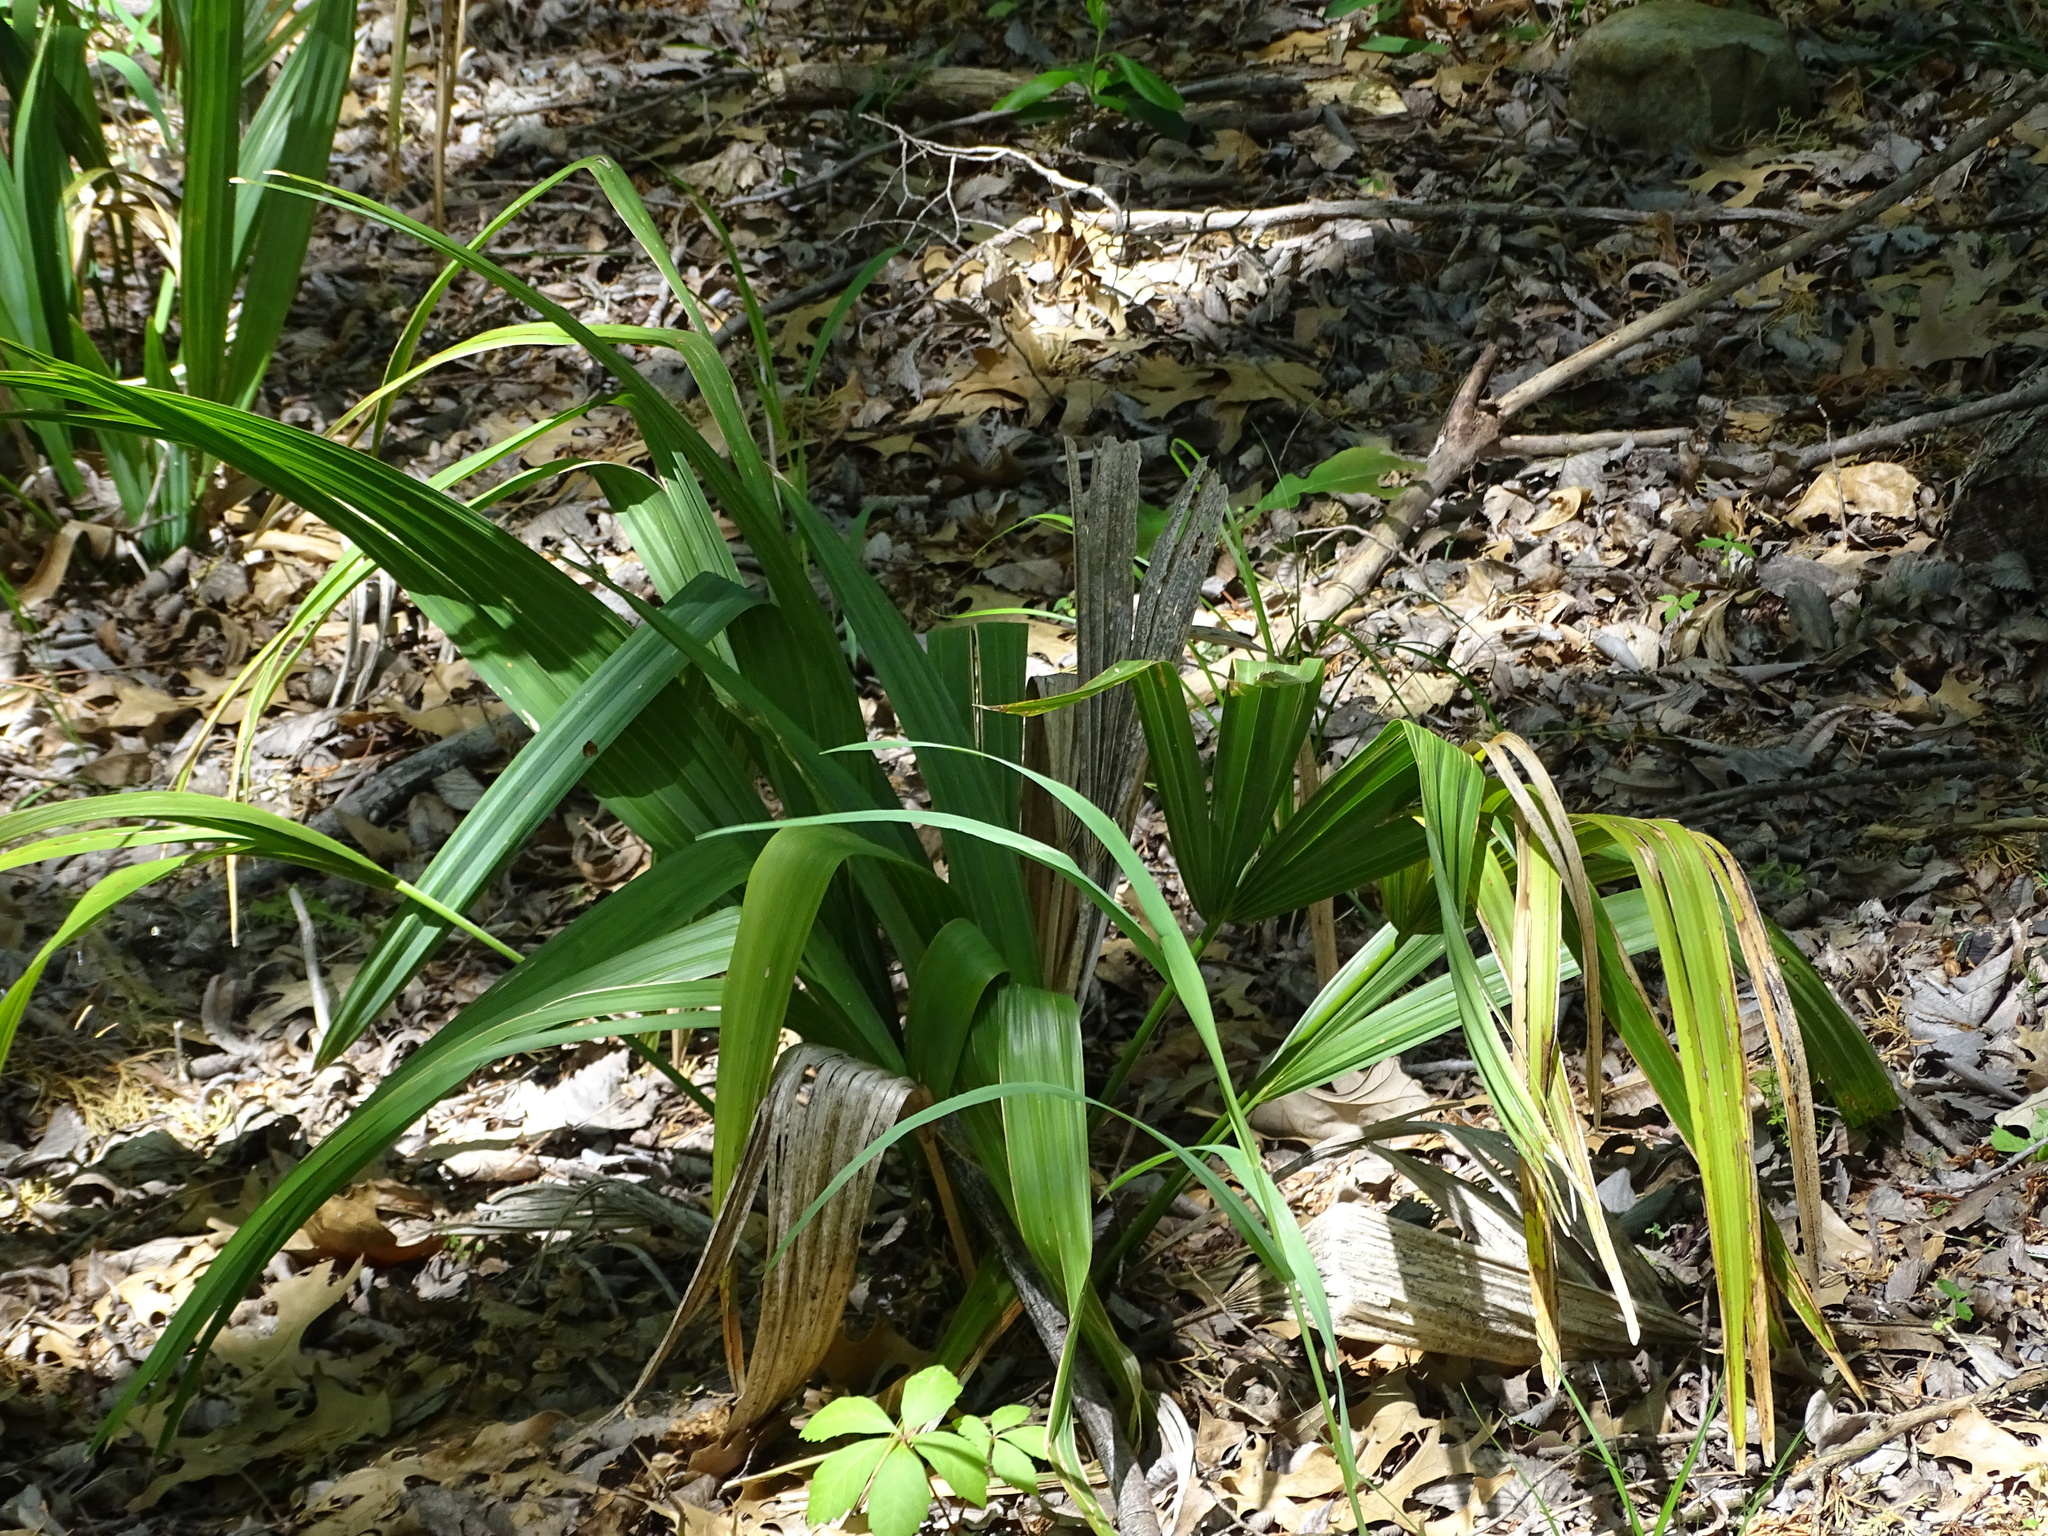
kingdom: Plantae
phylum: Tracheophyta
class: Liliopsida
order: Arecales
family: Arecaceae
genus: Sabal
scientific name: Sabal minor
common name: Dwarf palmetto
